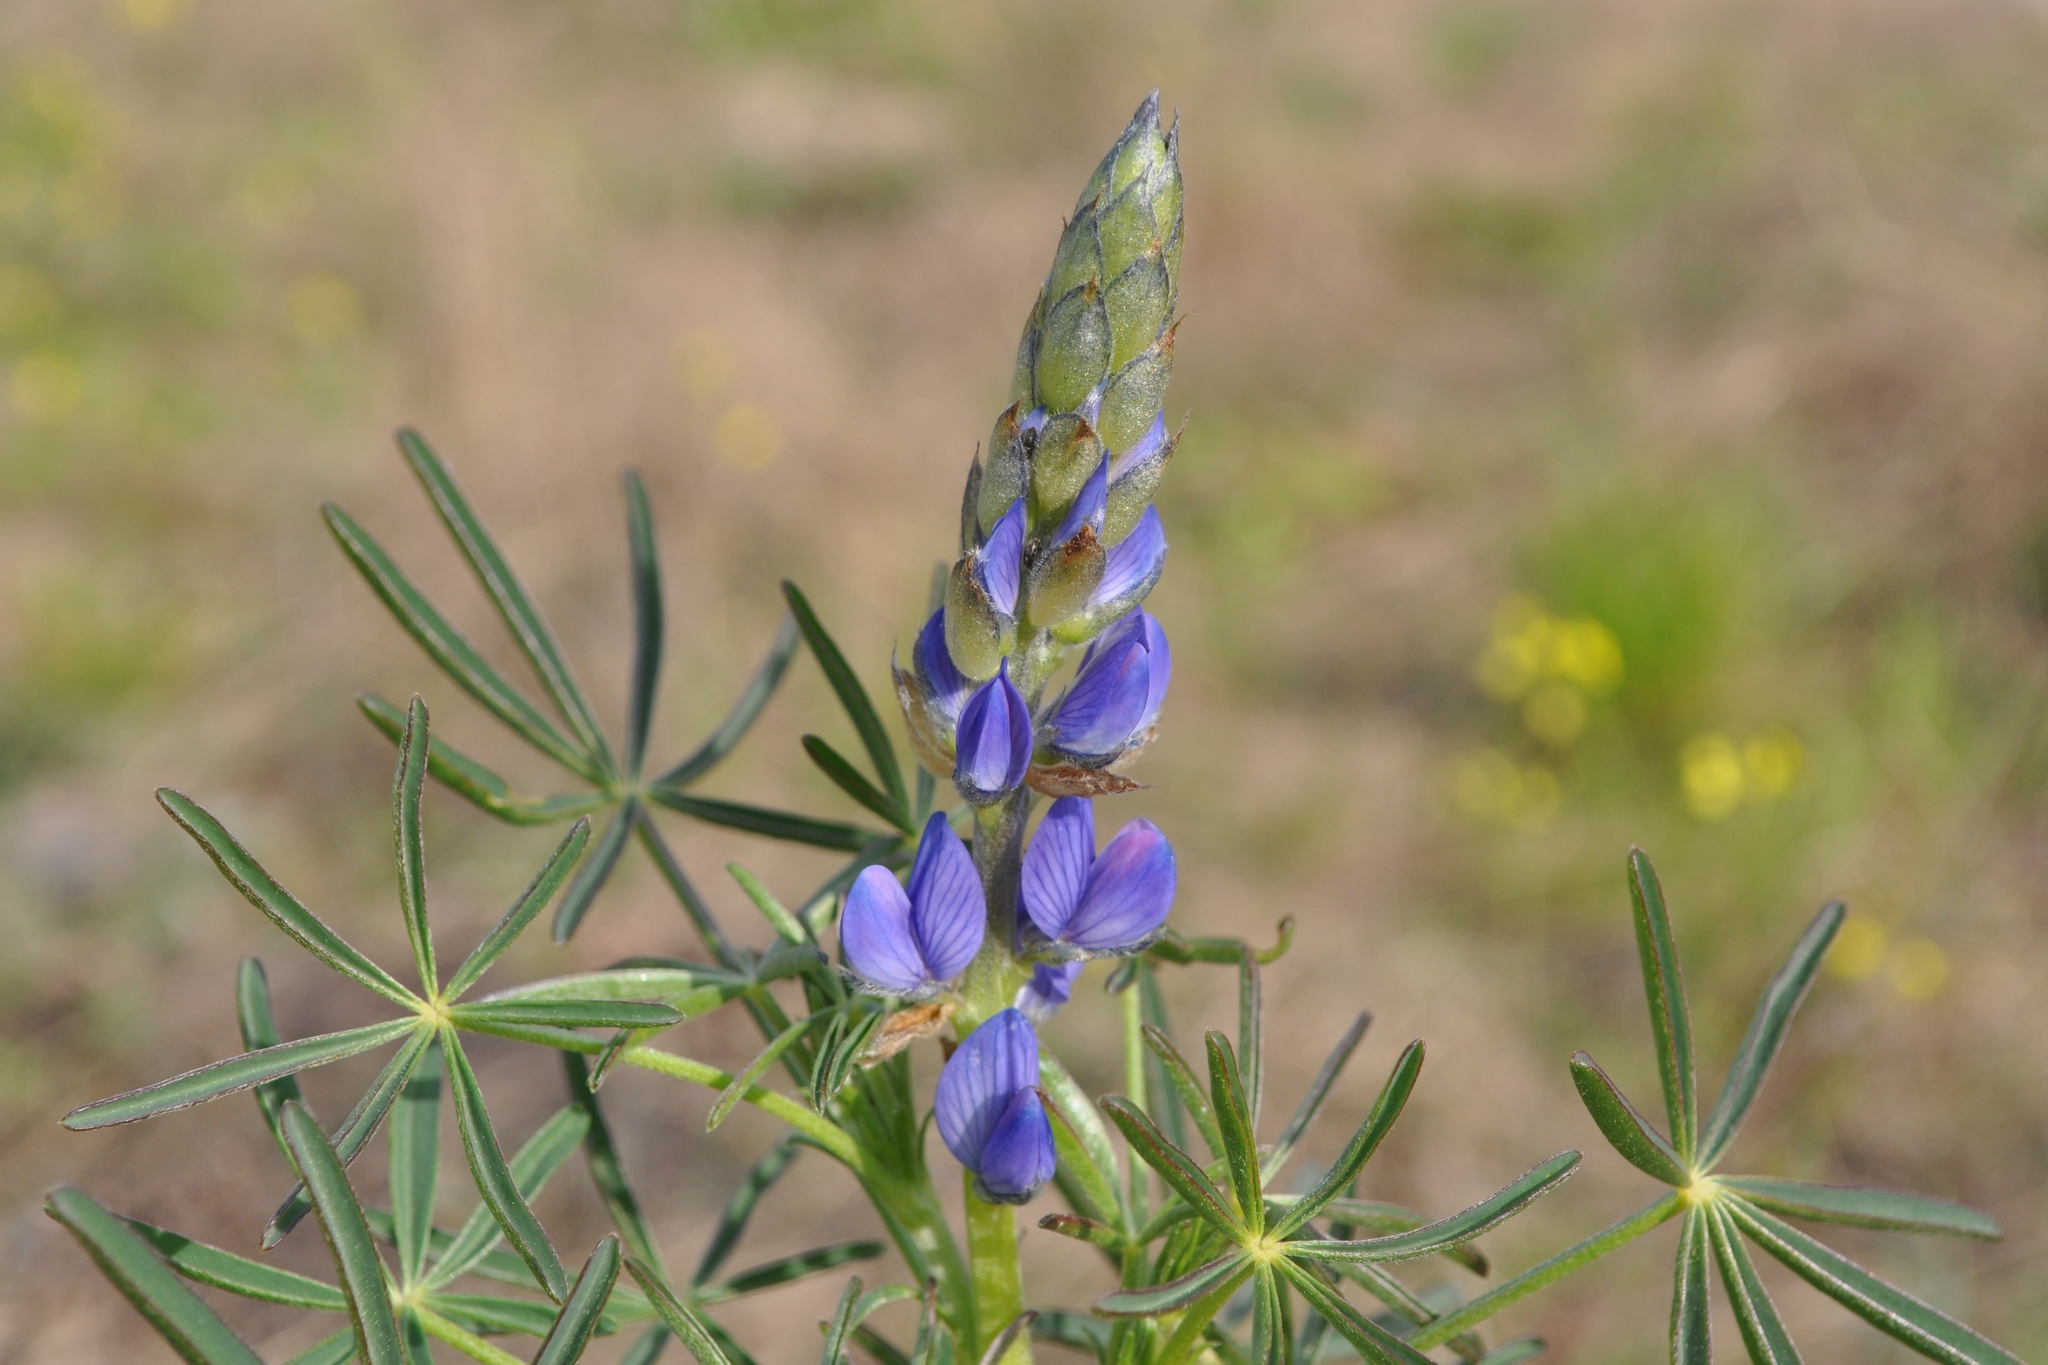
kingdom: Plantae
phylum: Tracheophyta
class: Magnoliopsida
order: Fabales
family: Fabaceae
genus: Lupinus
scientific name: Lupinus angustifolius
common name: Narrow-leaved lupin
